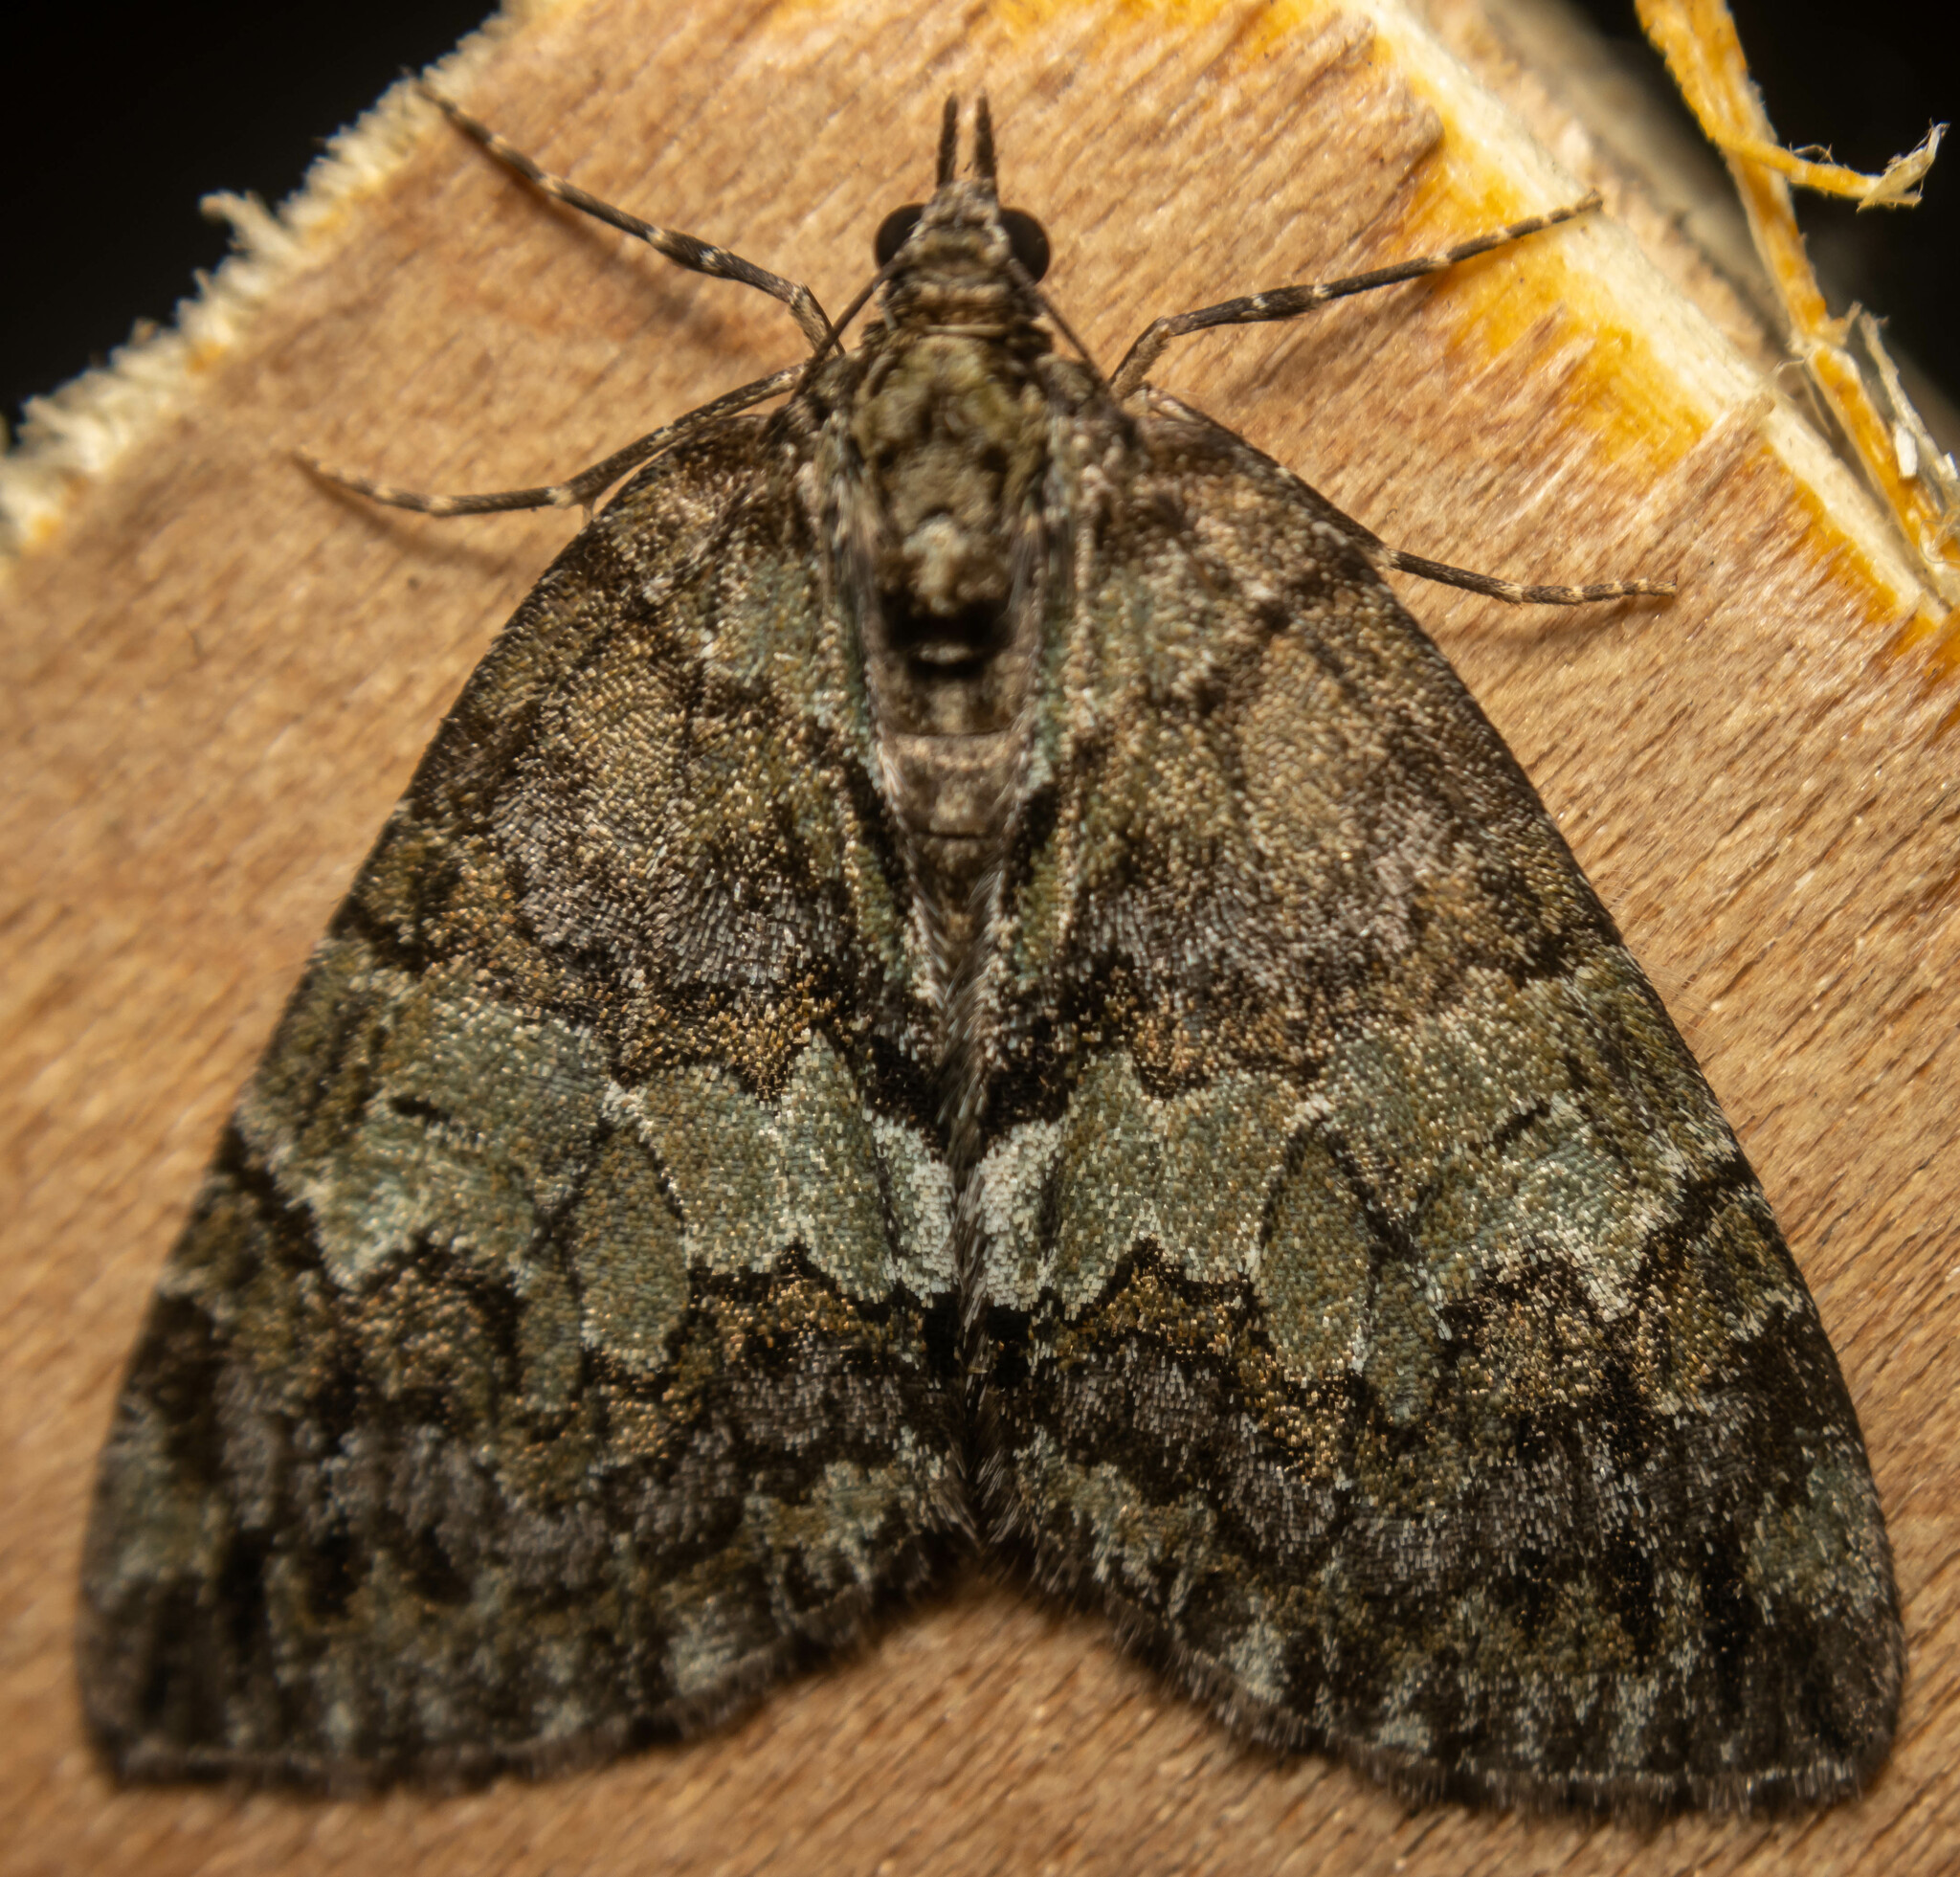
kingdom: Animalia
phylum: Arthropoda
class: Insecta
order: Lepidoptera
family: Geometridae
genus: Hydriomena
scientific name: Hydriomena impluviata
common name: May highflyer
